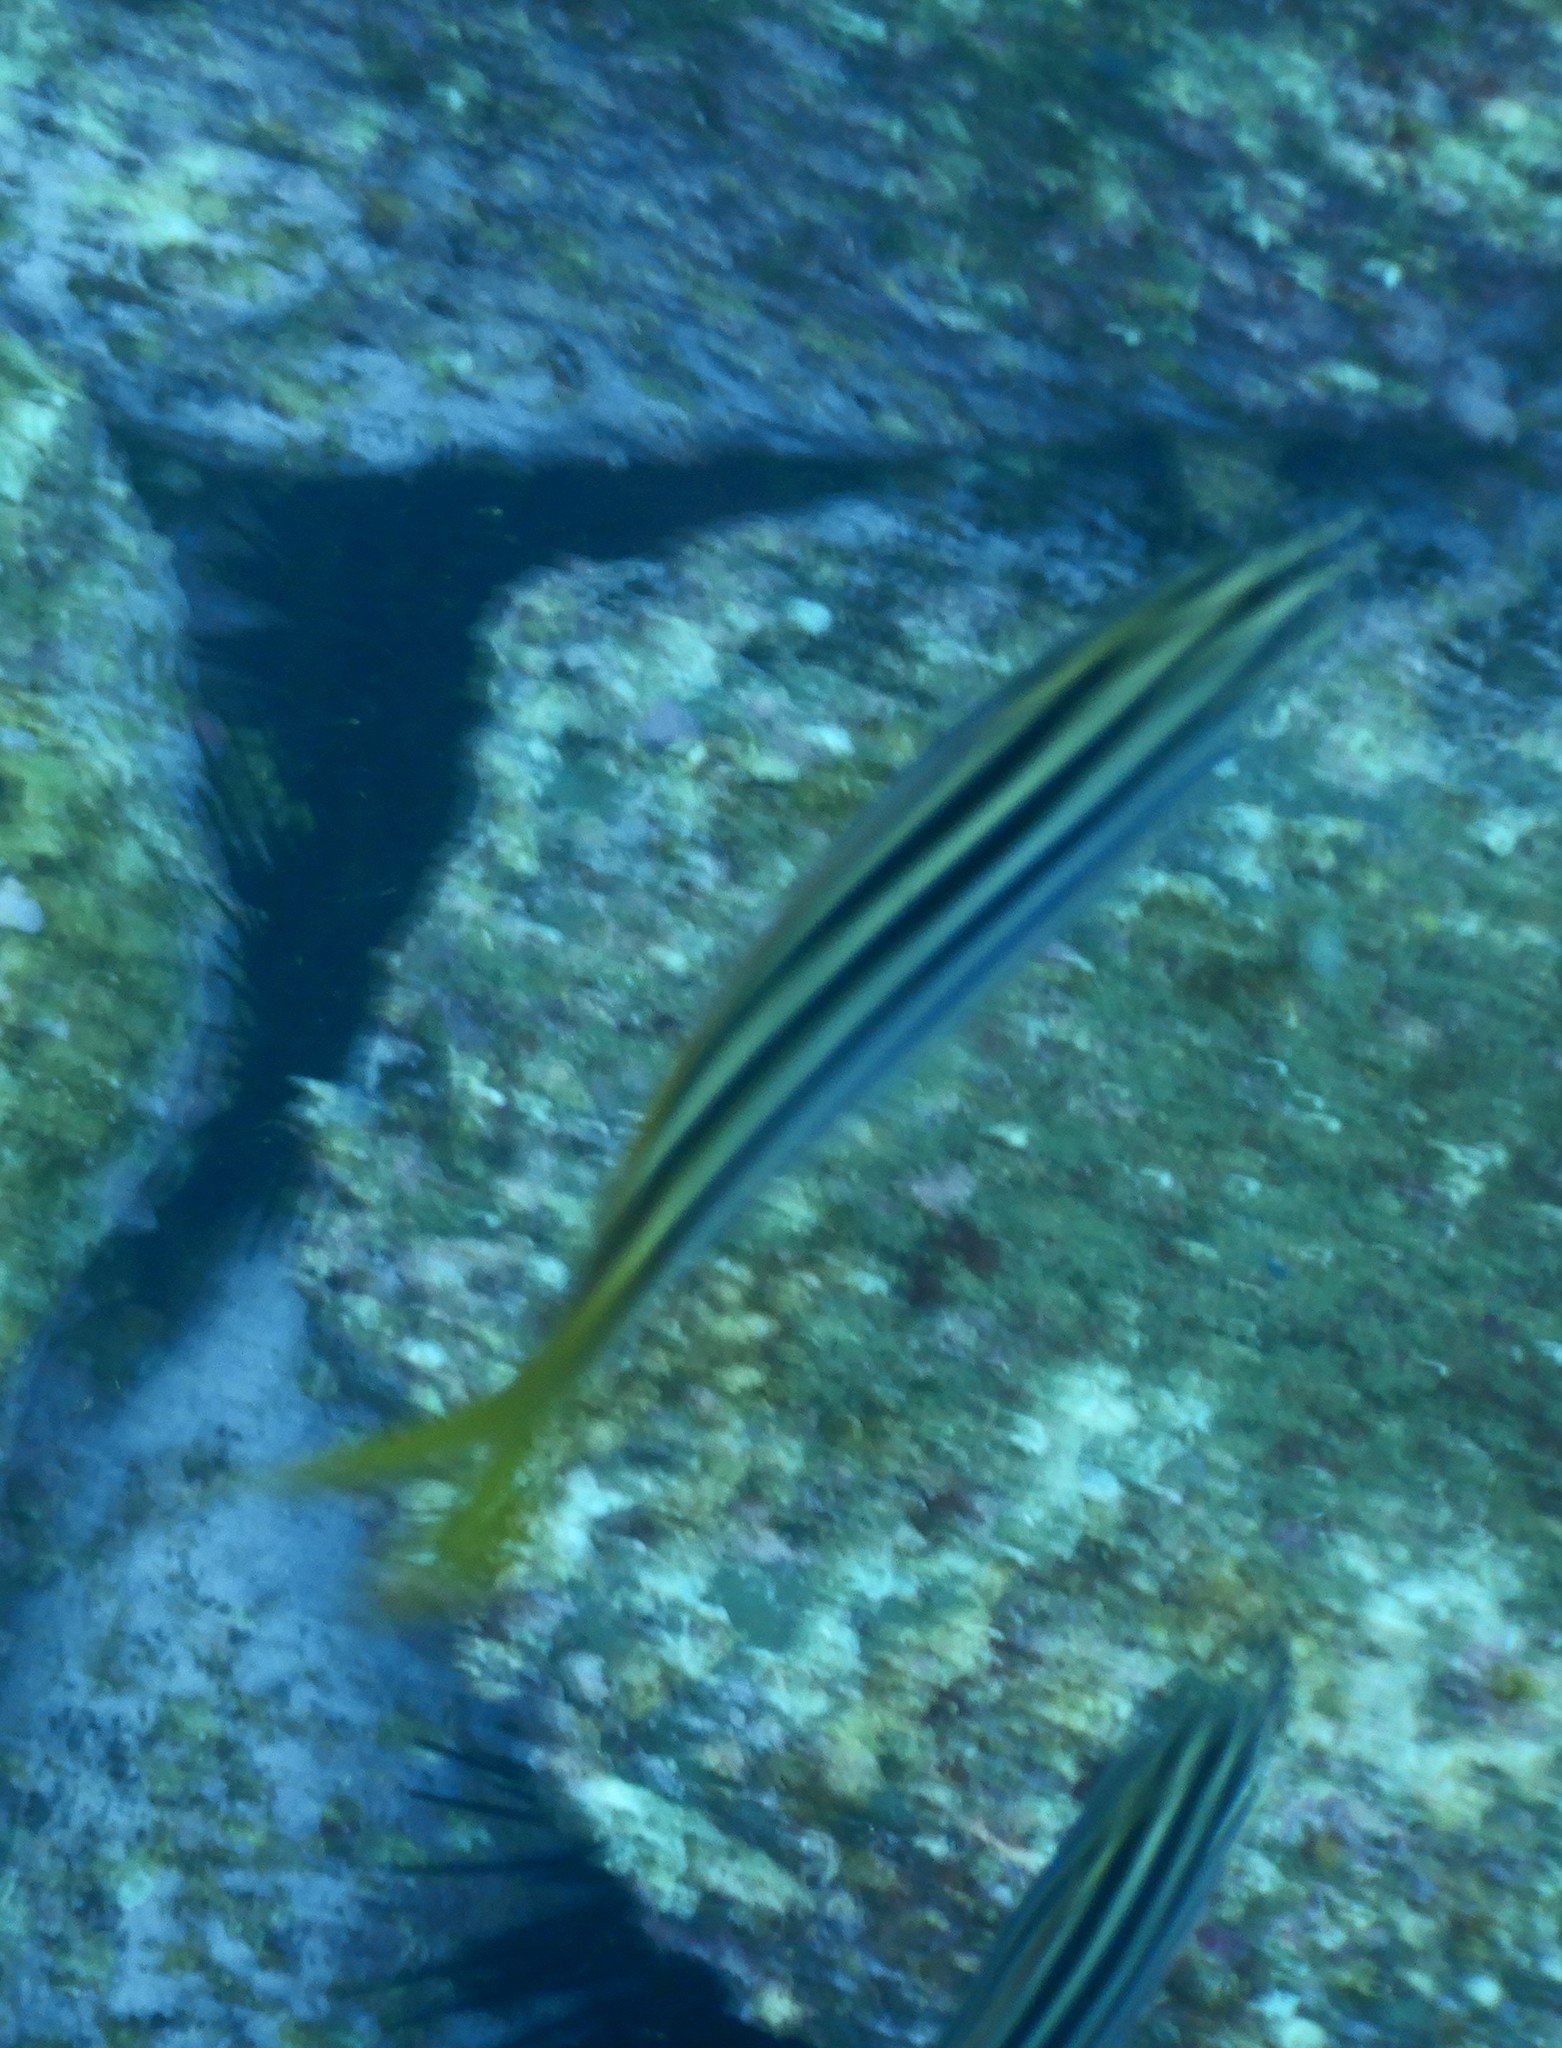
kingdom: Animalia
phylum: Chordata
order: Perciformes
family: Kyphosidae
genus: Atypichthys
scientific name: Atypichthys strigatus
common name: Australian mado
